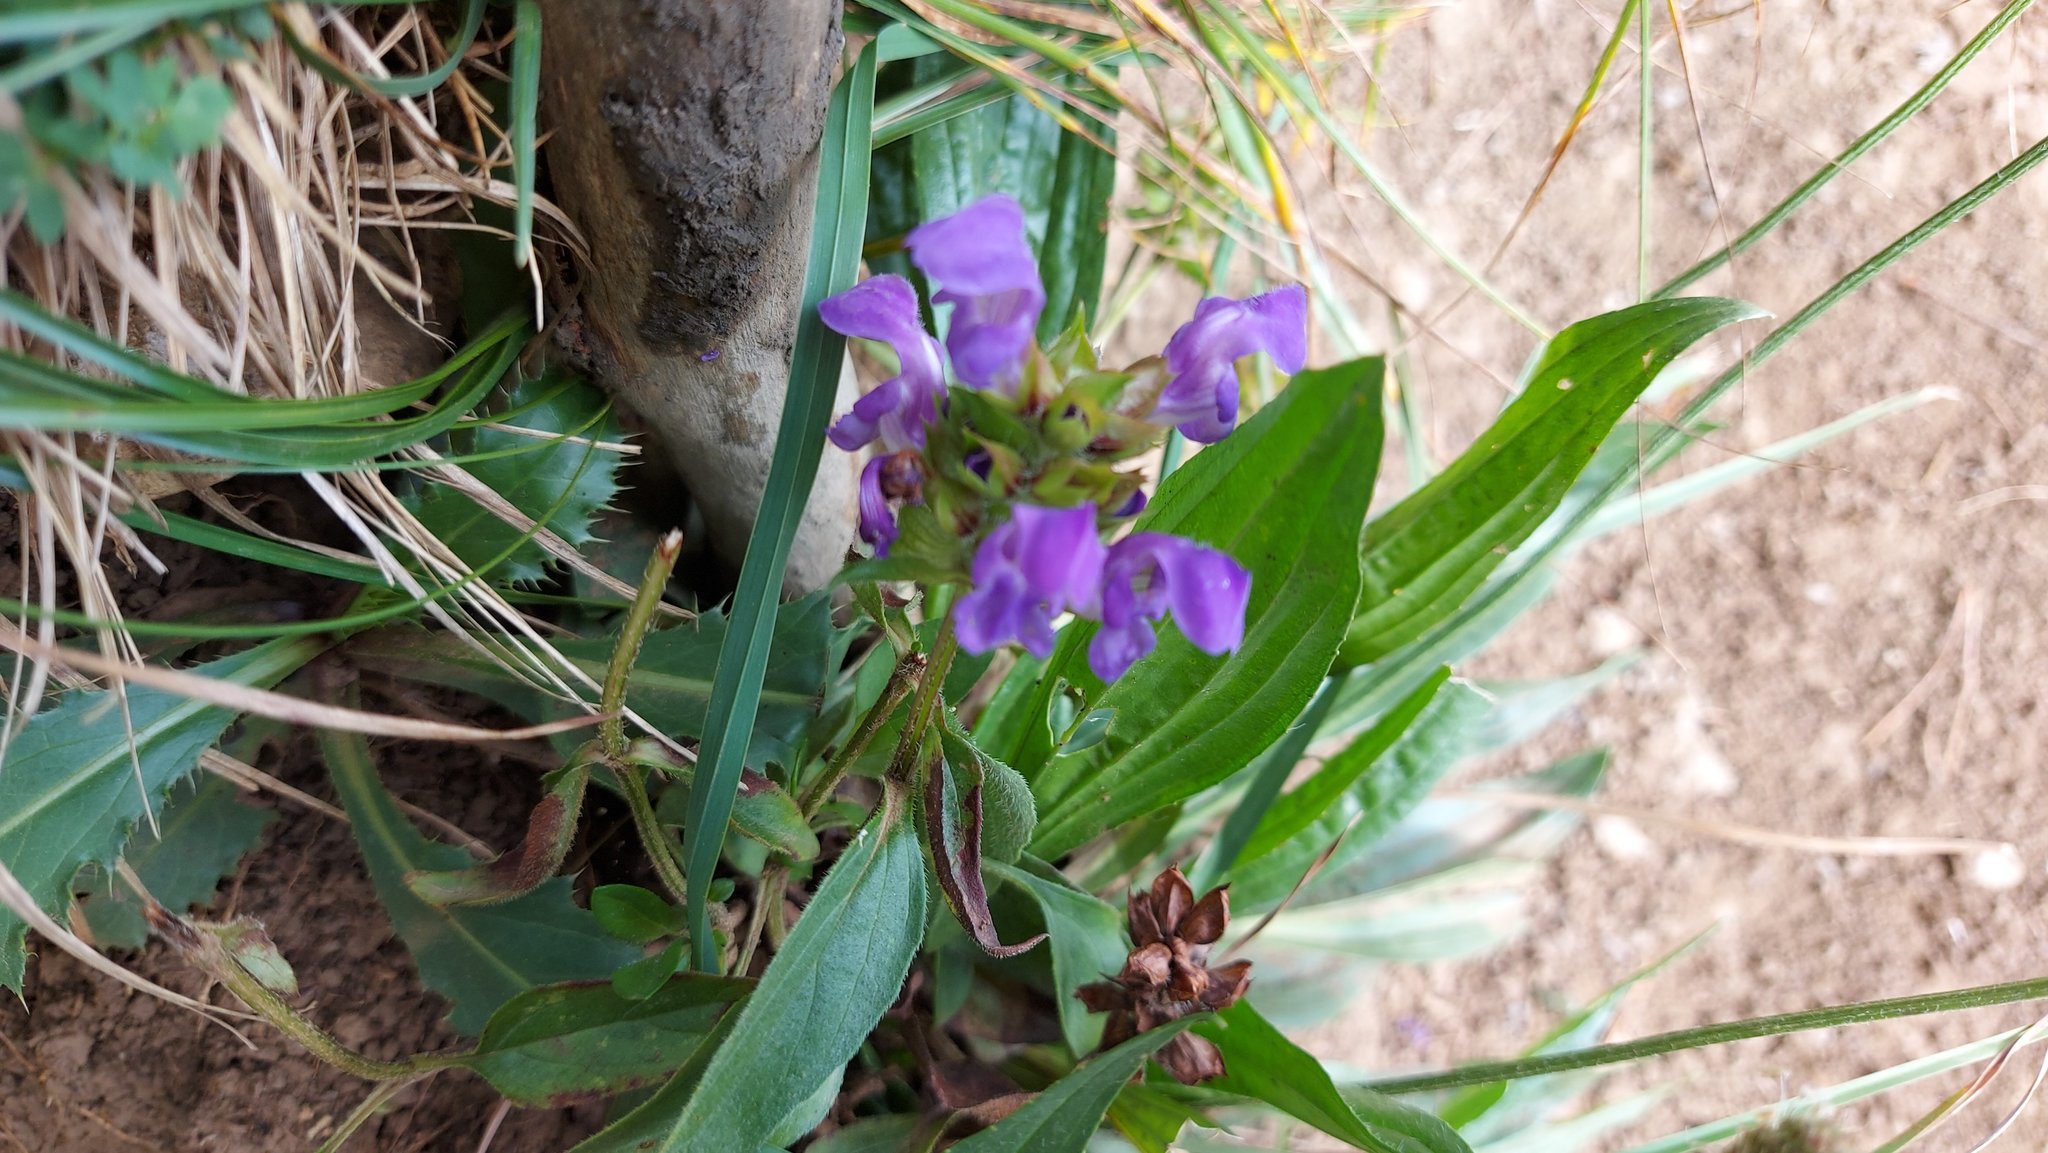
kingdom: Plantae
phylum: Tracheophyta
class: Magnoliopsida
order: Lamiales
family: Lamiaceae
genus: Prunella
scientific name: Prunella grandiflora
